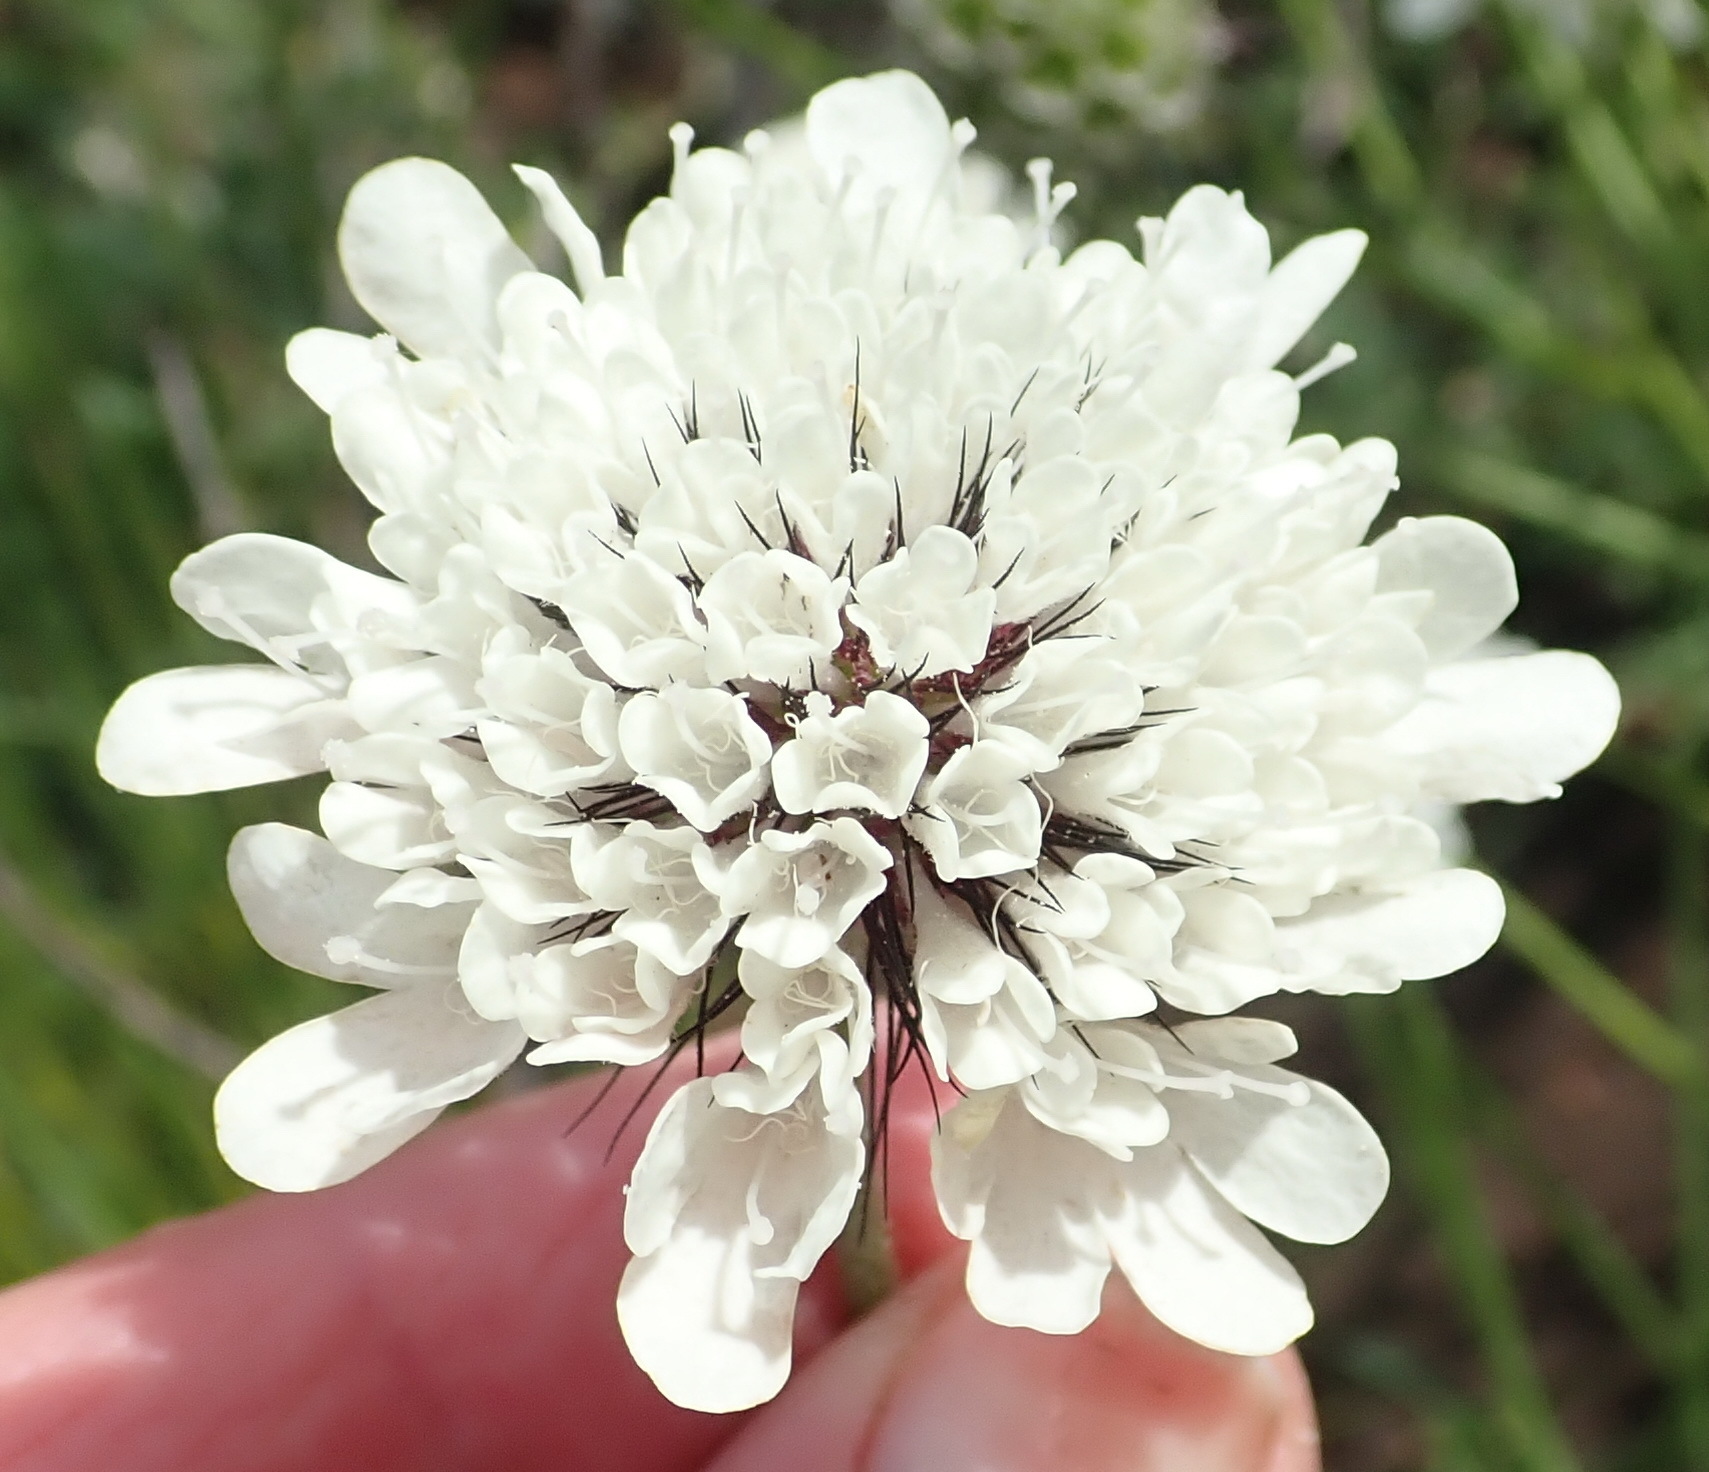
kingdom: Plantae
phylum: Tracheophyta
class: Magnoliopsida
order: Dipsacales
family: Caprifoliaceae
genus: Scabiosa
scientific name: Scabiosa columbaria
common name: Small scabious
